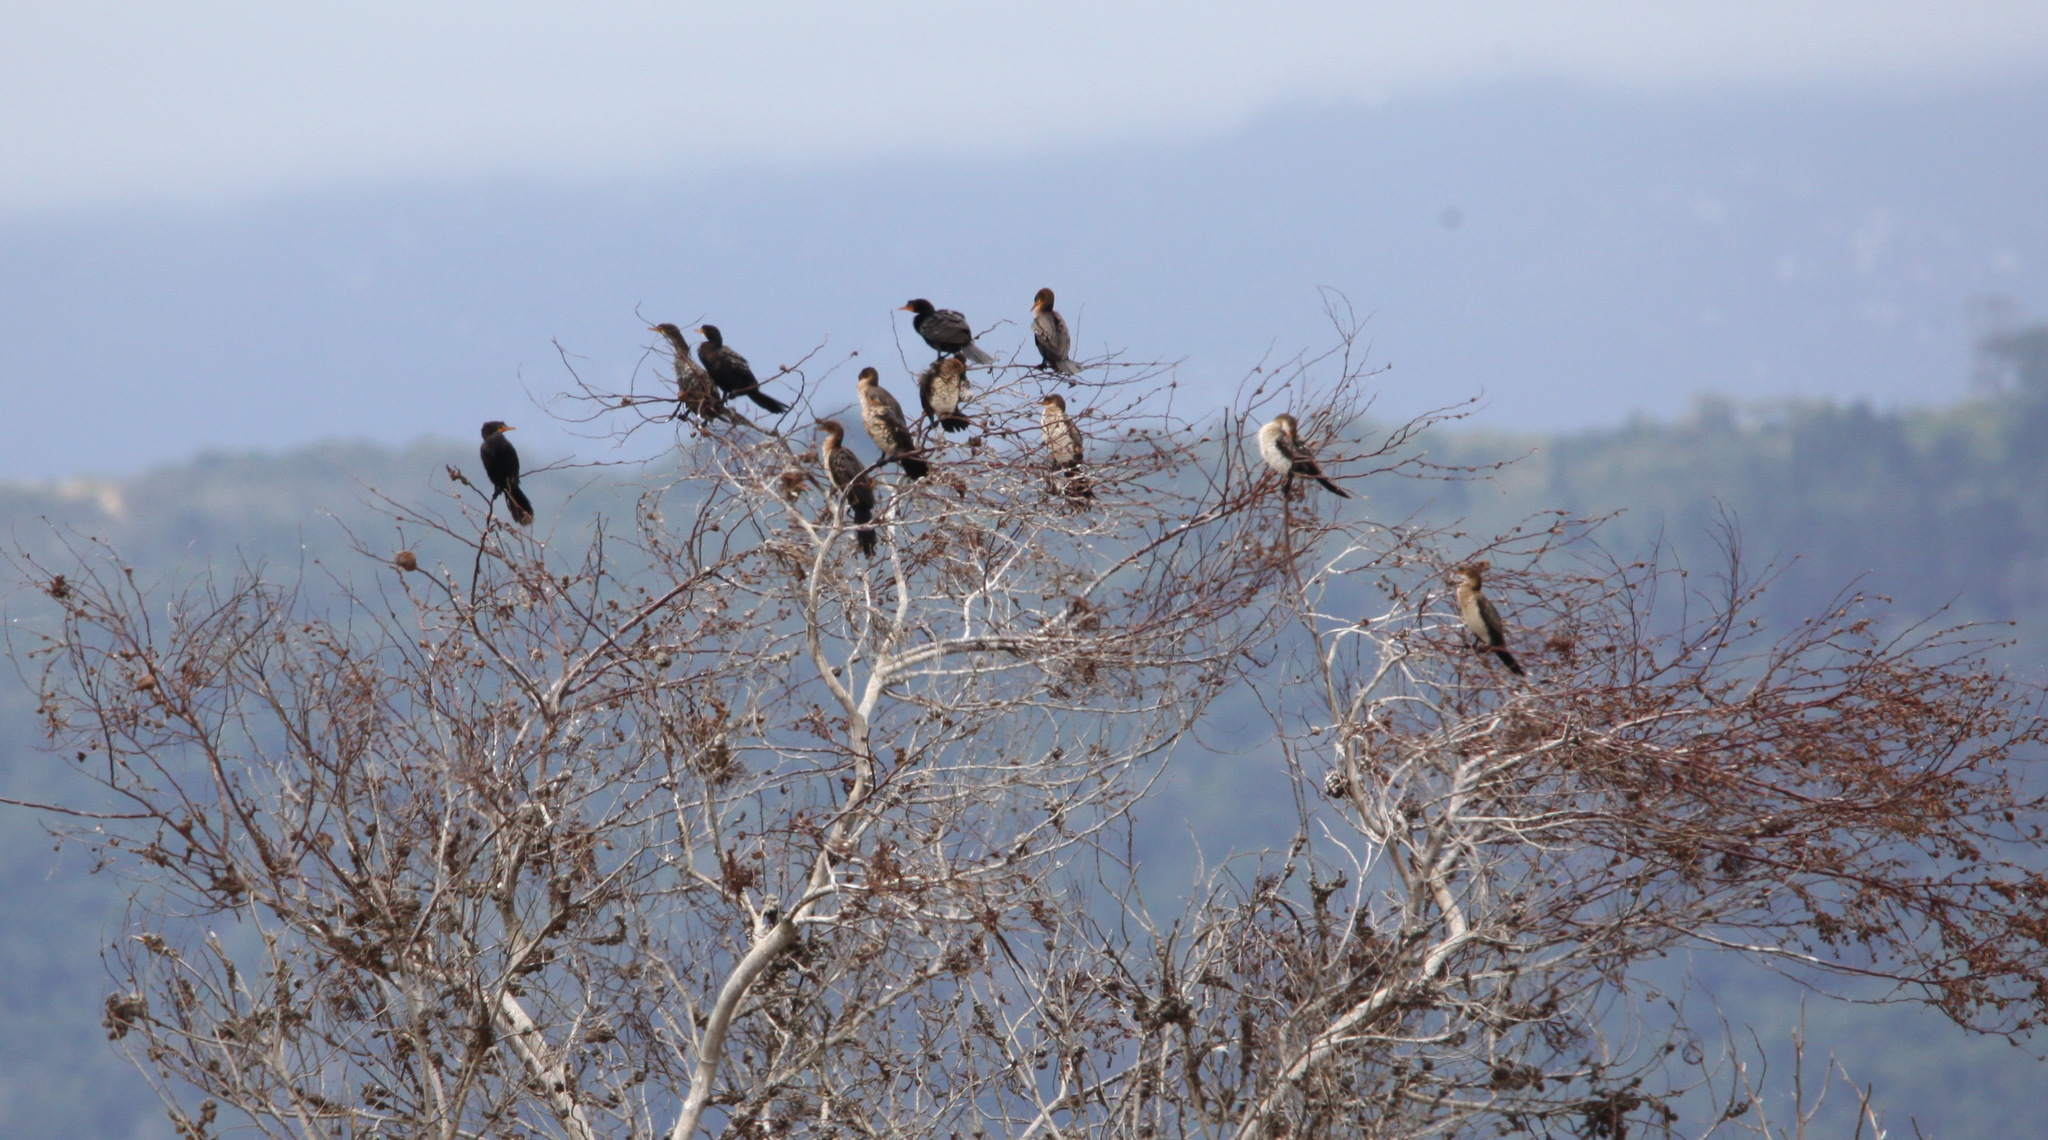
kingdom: Animalia
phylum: Chordata
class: Aves
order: Suliformes
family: Phalacrocoracidae
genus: Microcarbo
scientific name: Microcarbo africanus
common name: Long-tailed cormorant
